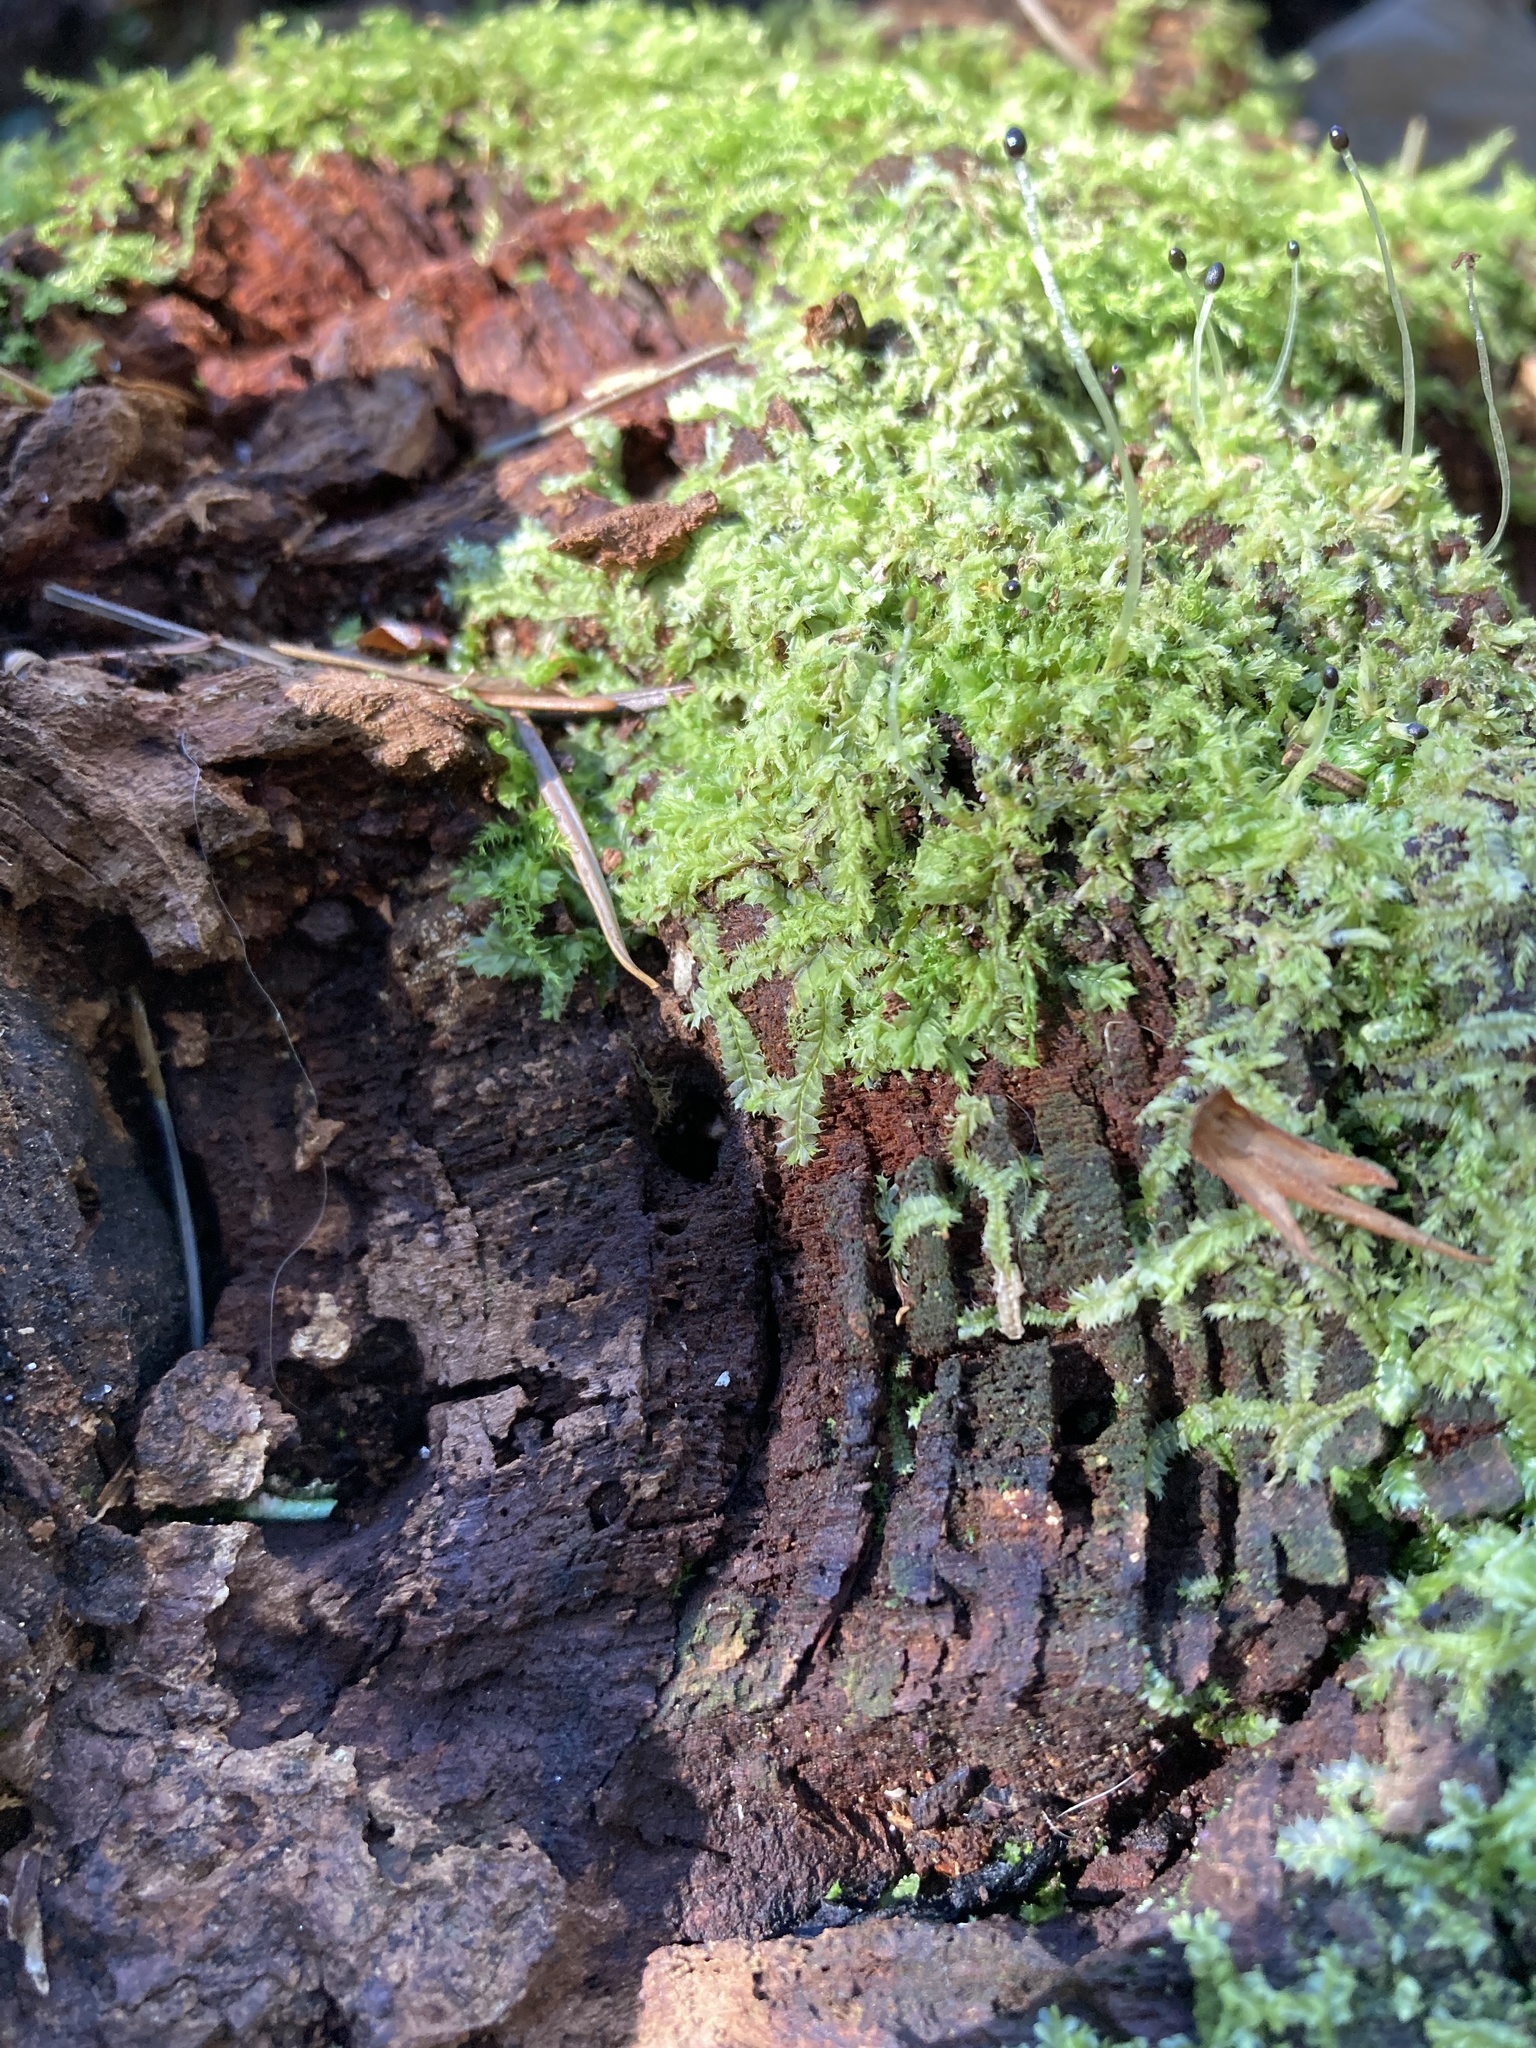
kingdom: Plantae
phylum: Marchantiophyta
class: Jungermanniopsida
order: Jungermanniales
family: Lophocoleaceae
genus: Lophocolea
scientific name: Lophocolea bidentata
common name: Bifid crestwort
